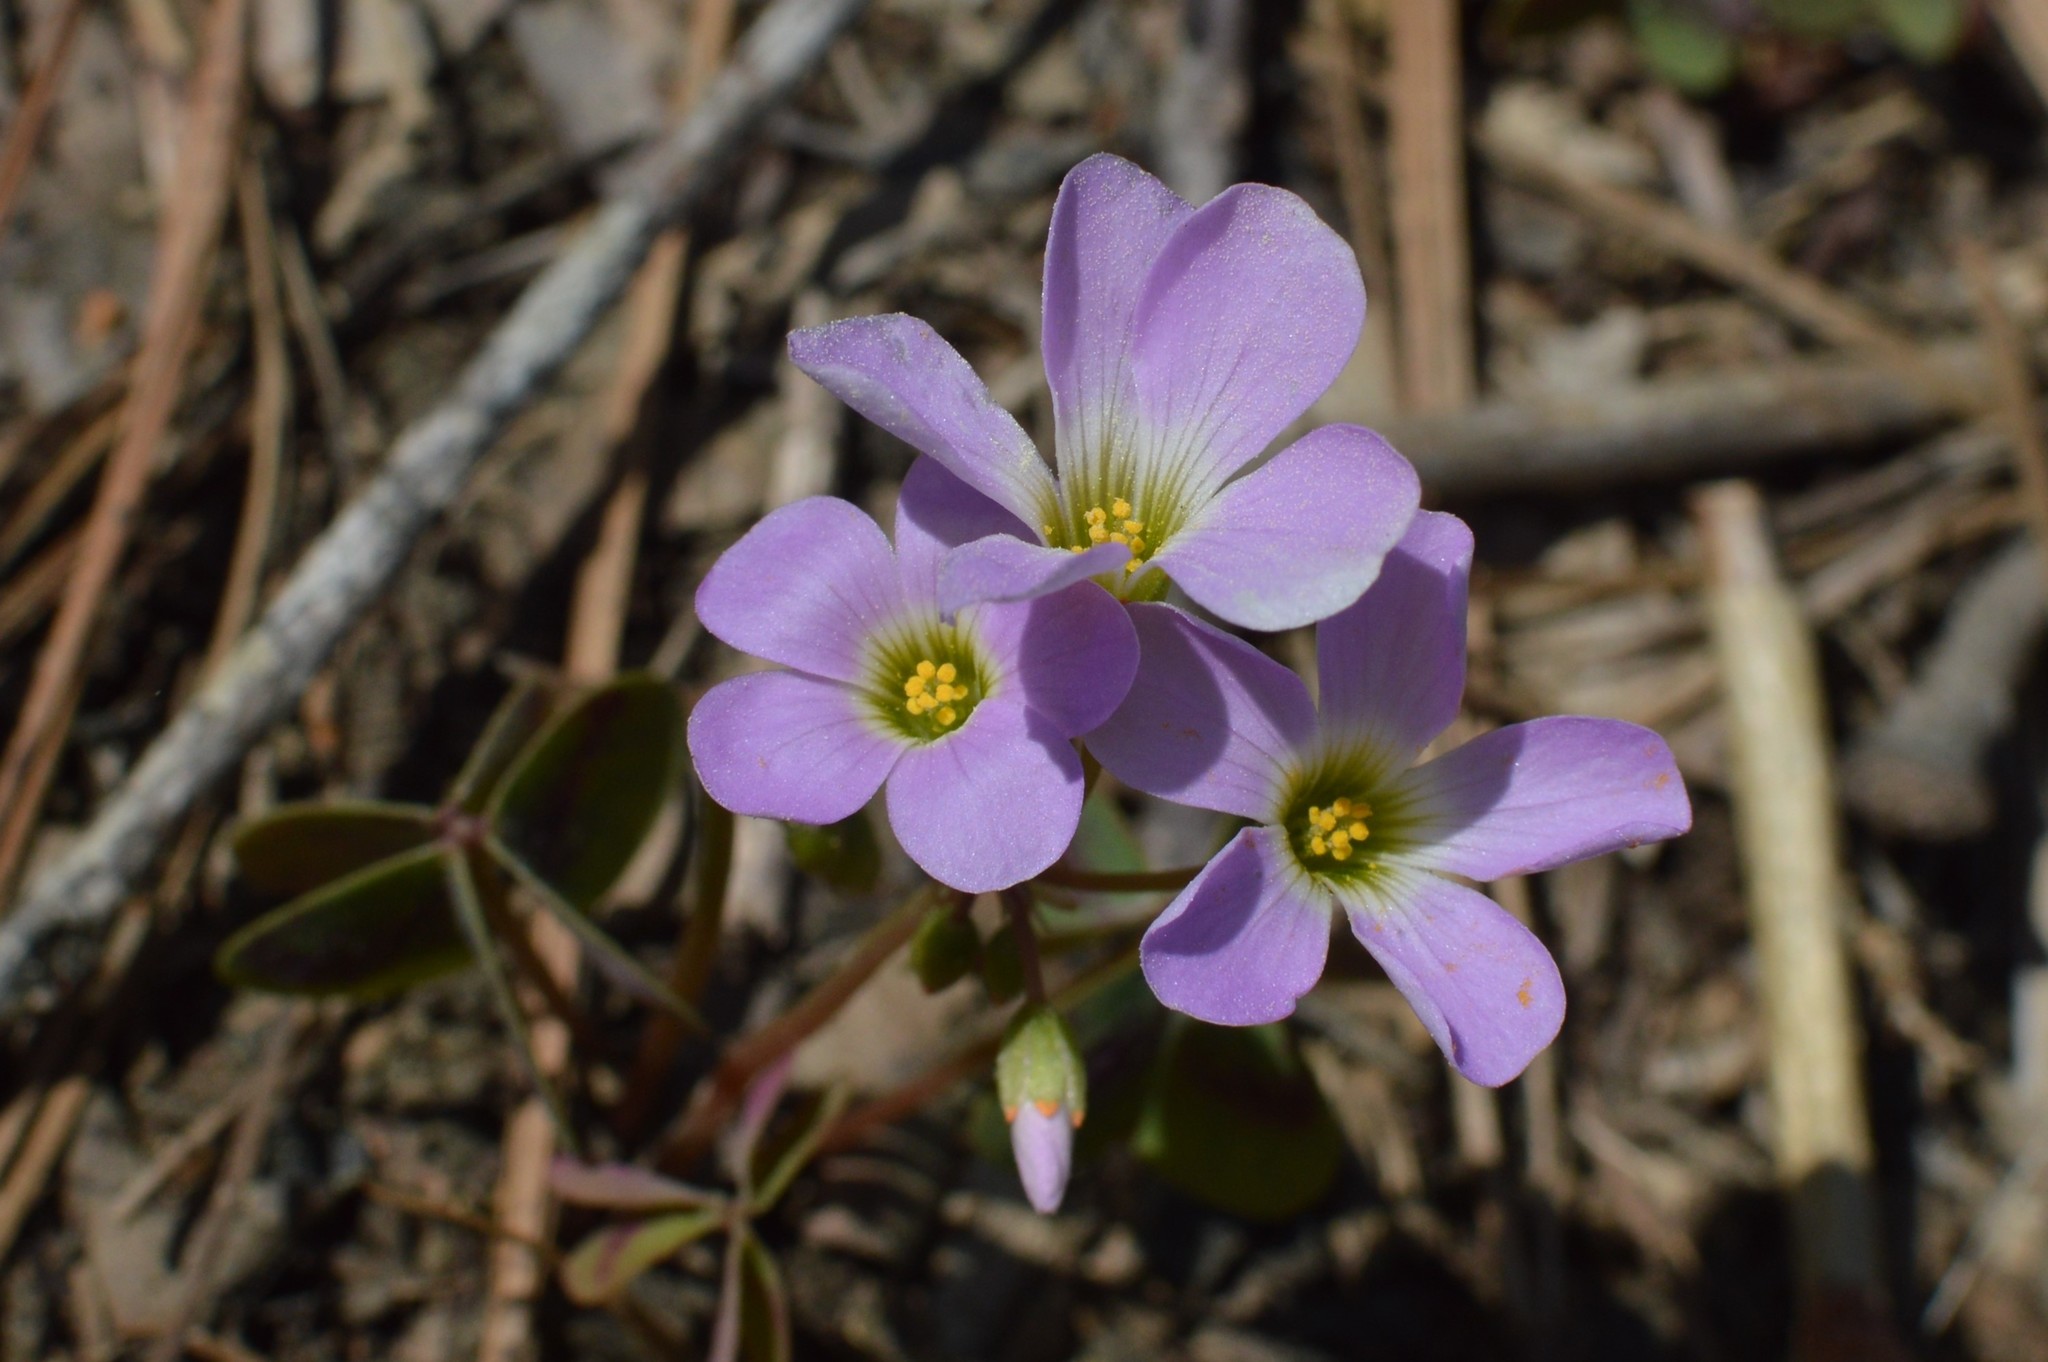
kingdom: Plantae
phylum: Tracheophyta
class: Magnoliopsida
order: Oxalidales
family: Oxalidaceae
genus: Oxalis
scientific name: Oxalis violacea
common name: Violet wood-sorrel
